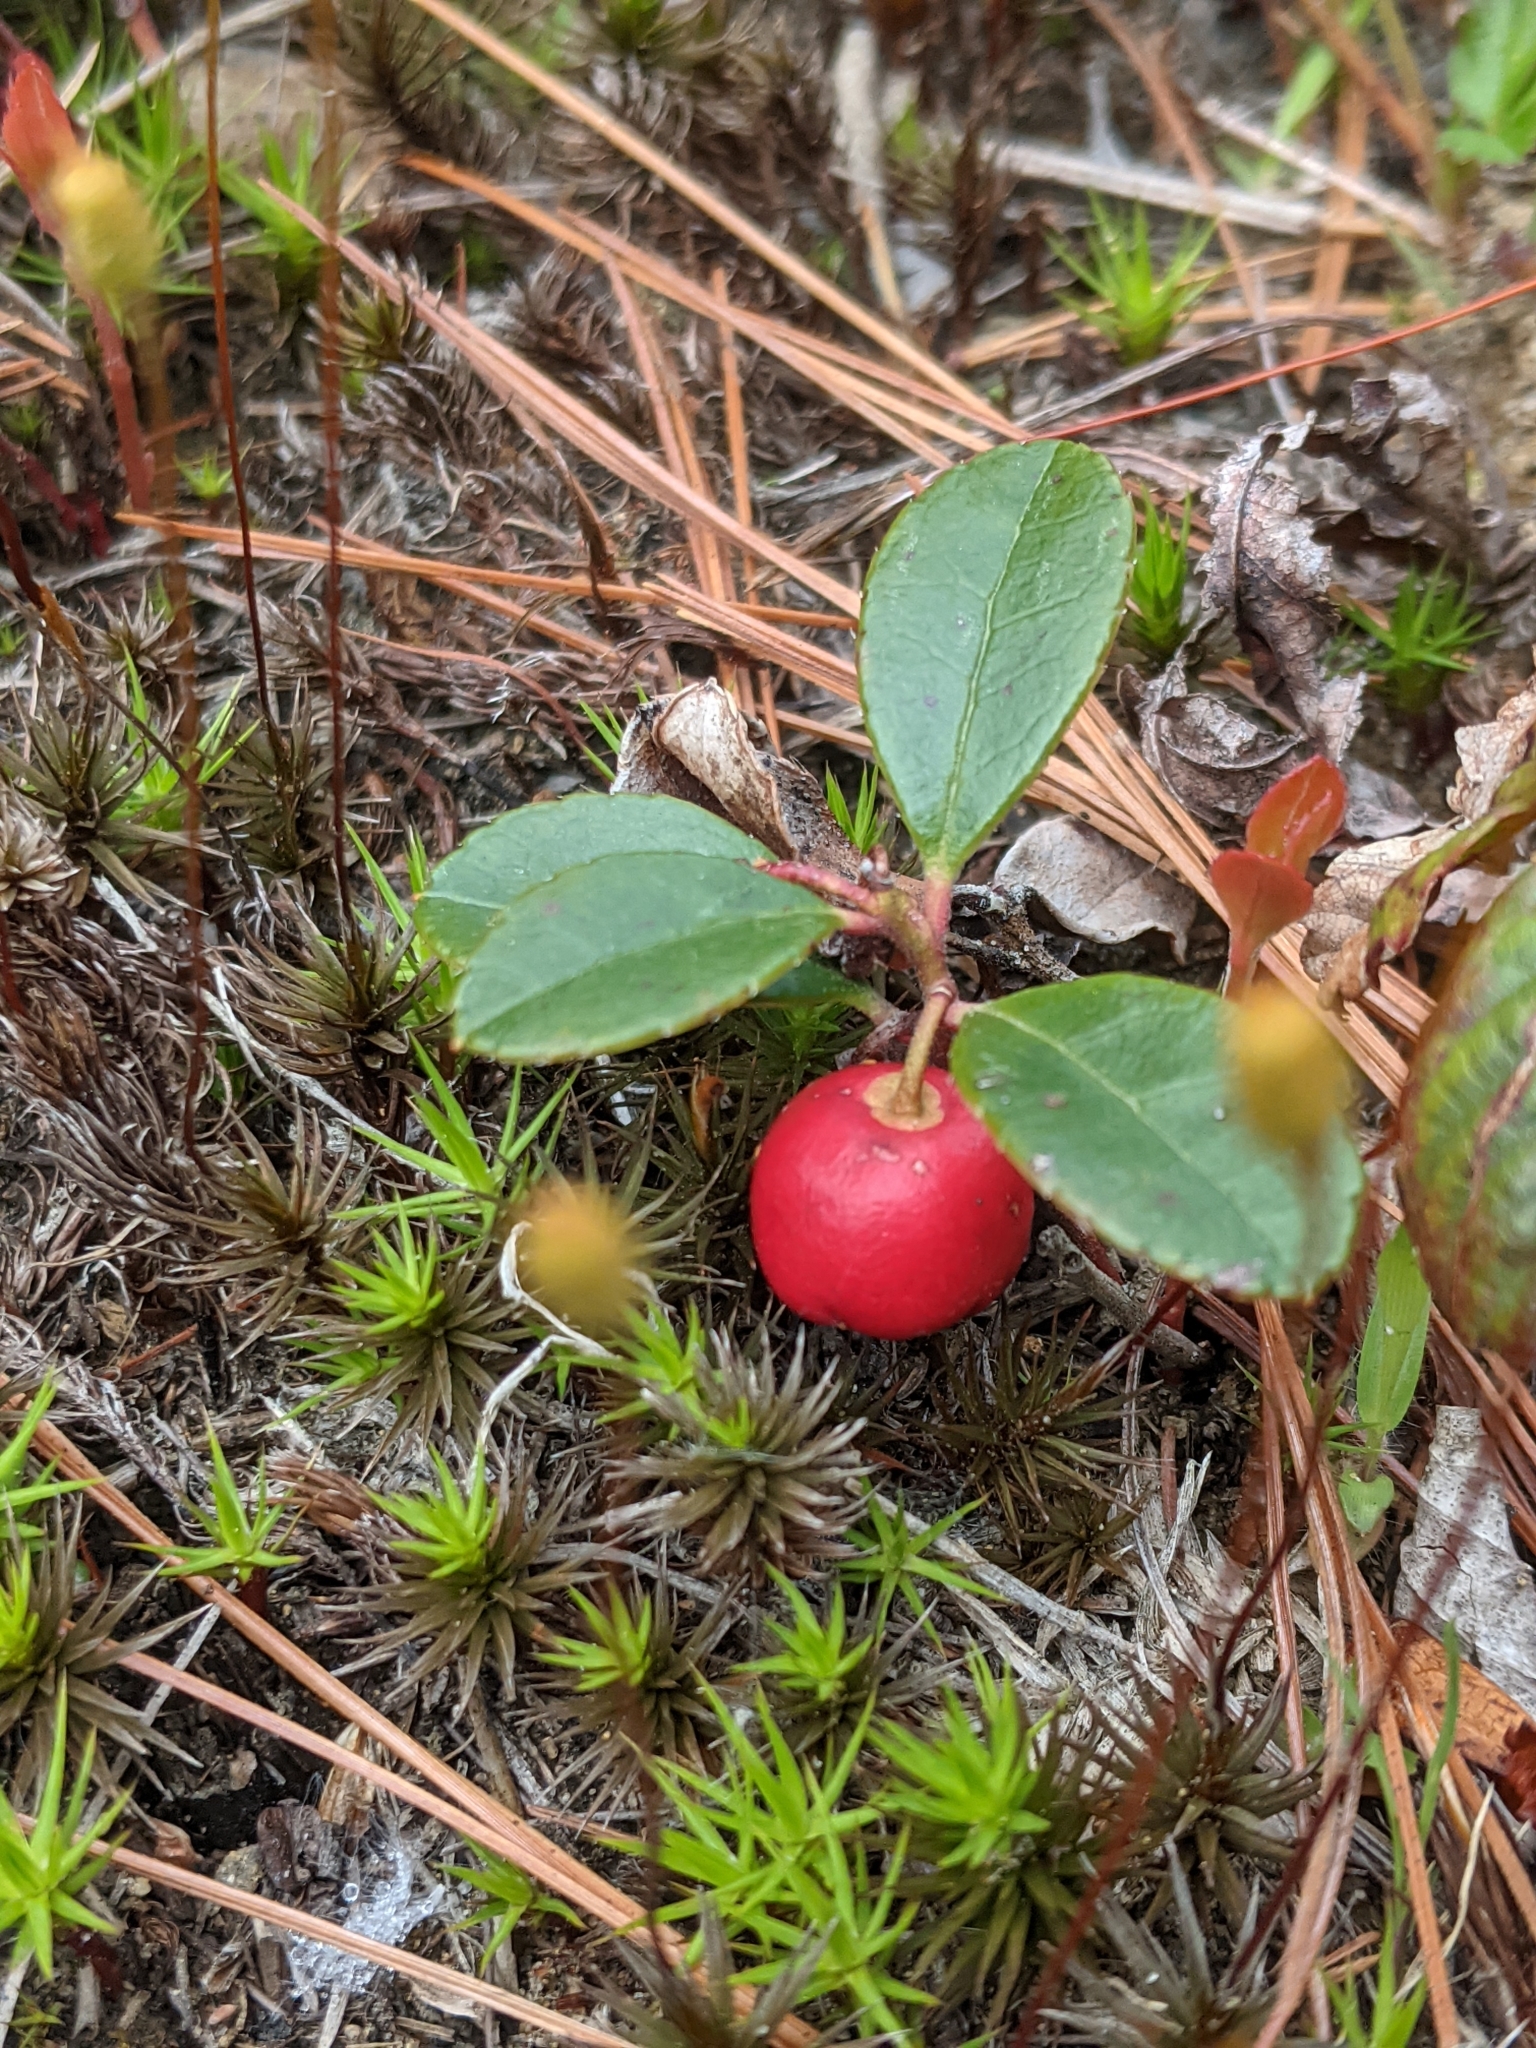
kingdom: Plantae
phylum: Tracheophyta
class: Magnoliopsida
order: Ericales
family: Ericaceae
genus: Gaultheria
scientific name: Gaultheria procumbens
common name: Checkerberry
